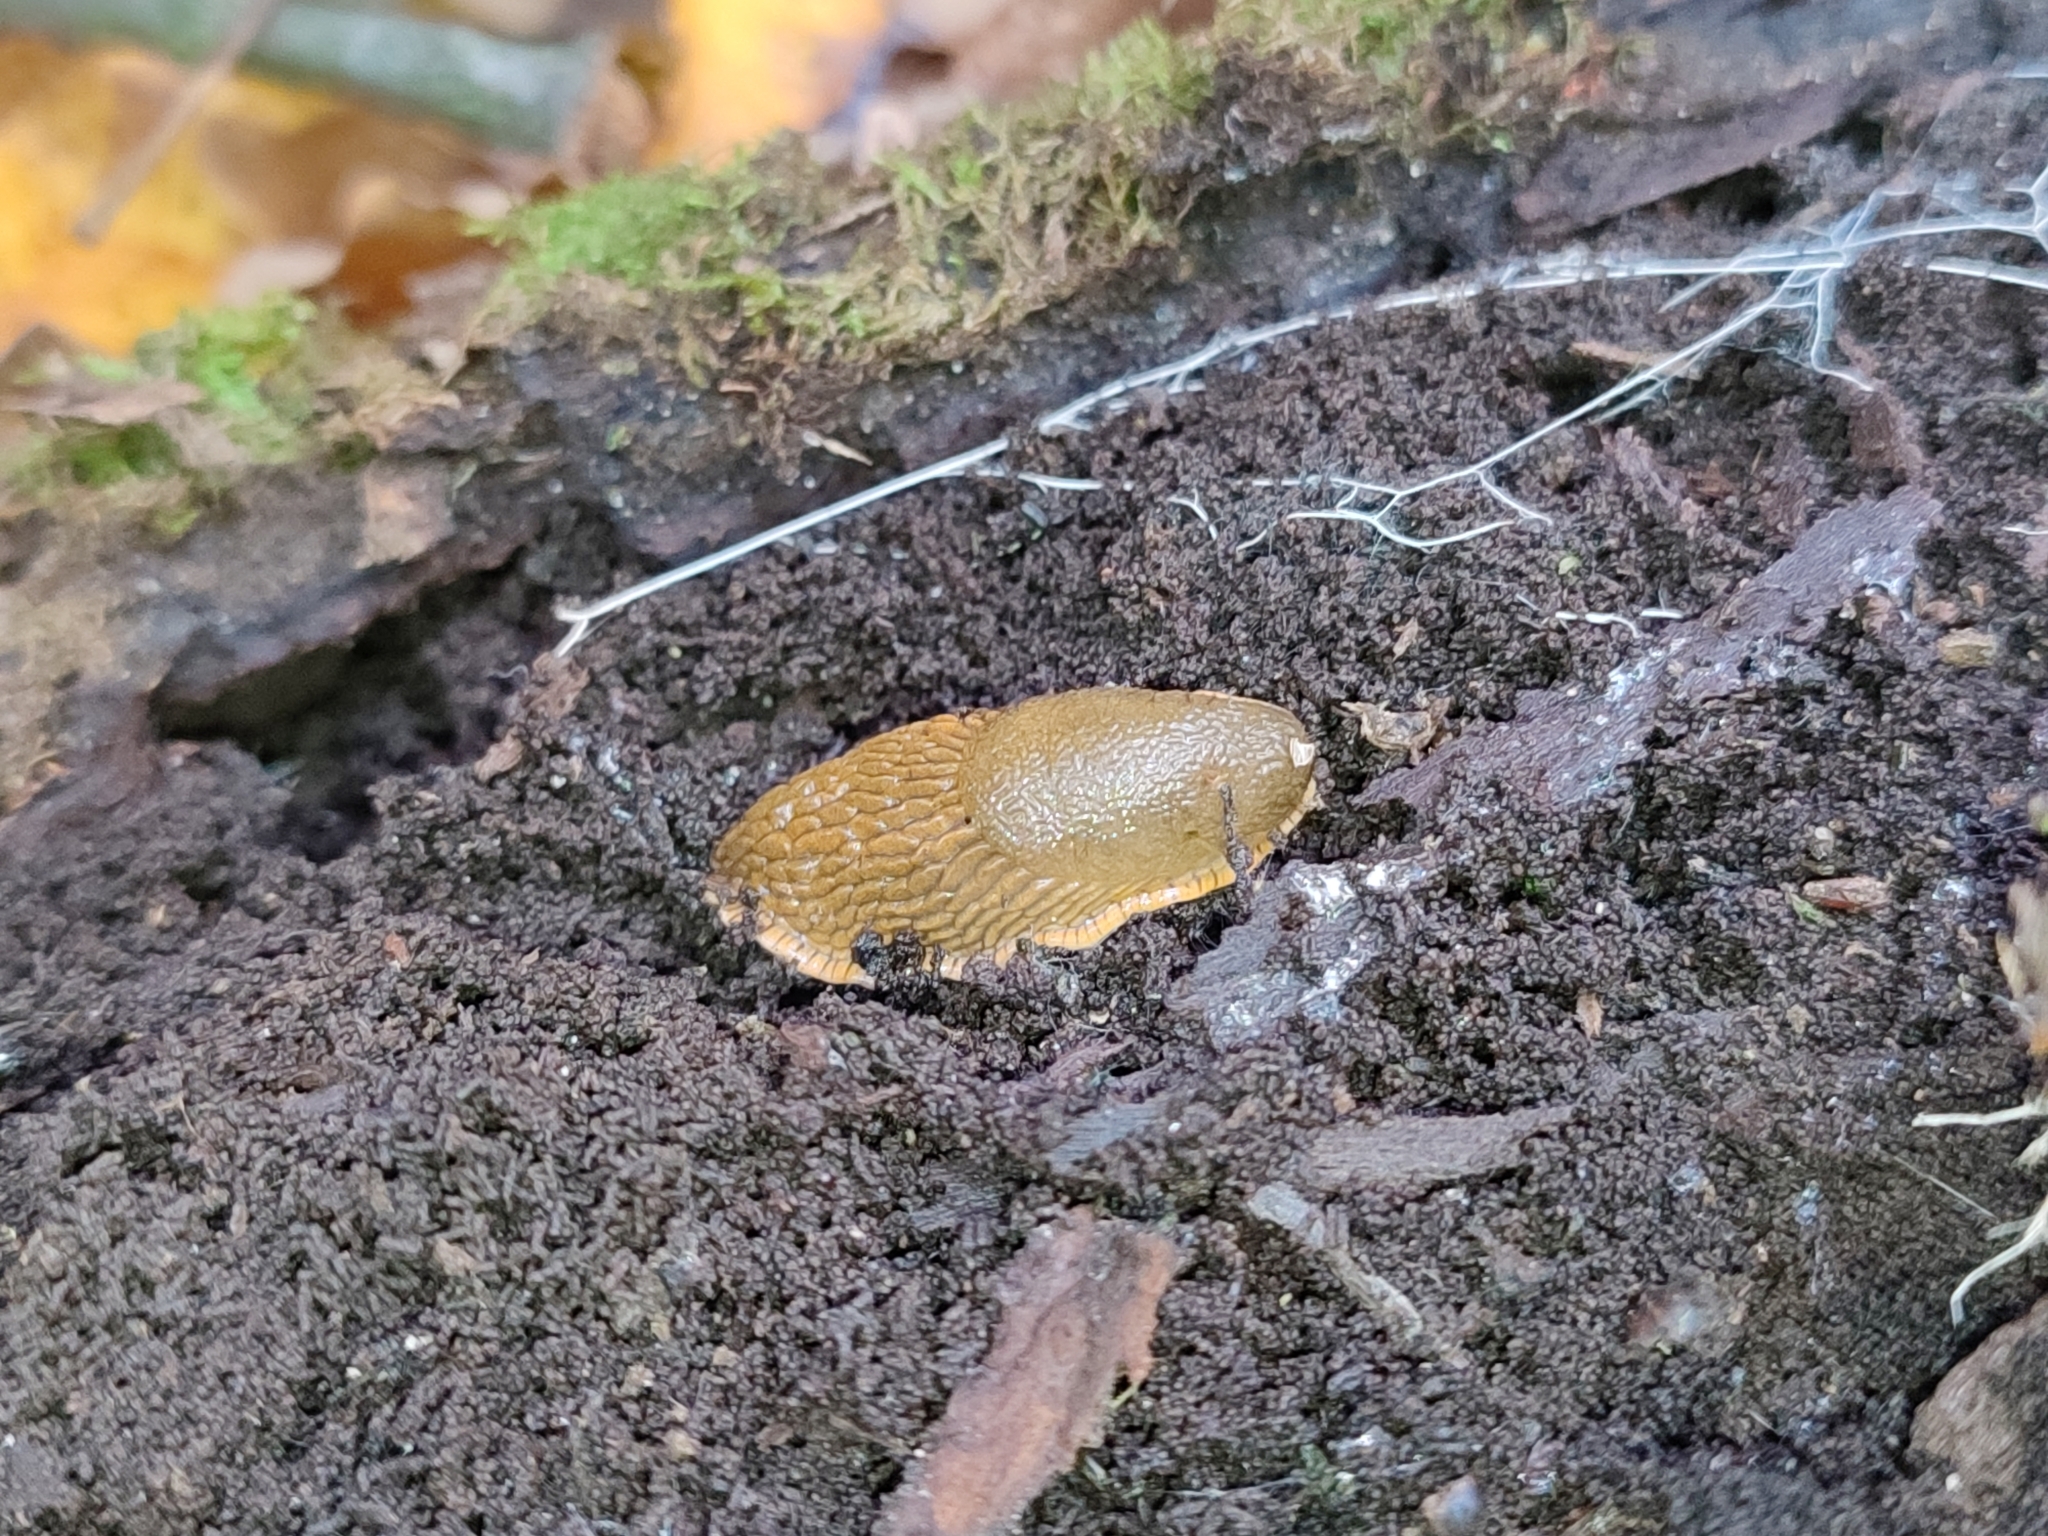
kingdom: Animalia
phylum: Mollusca
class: Gastropoda
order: Stylommatophora
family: Arionidae
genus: Arion
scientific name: Arion vulgaris
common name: Lusitanian slug
